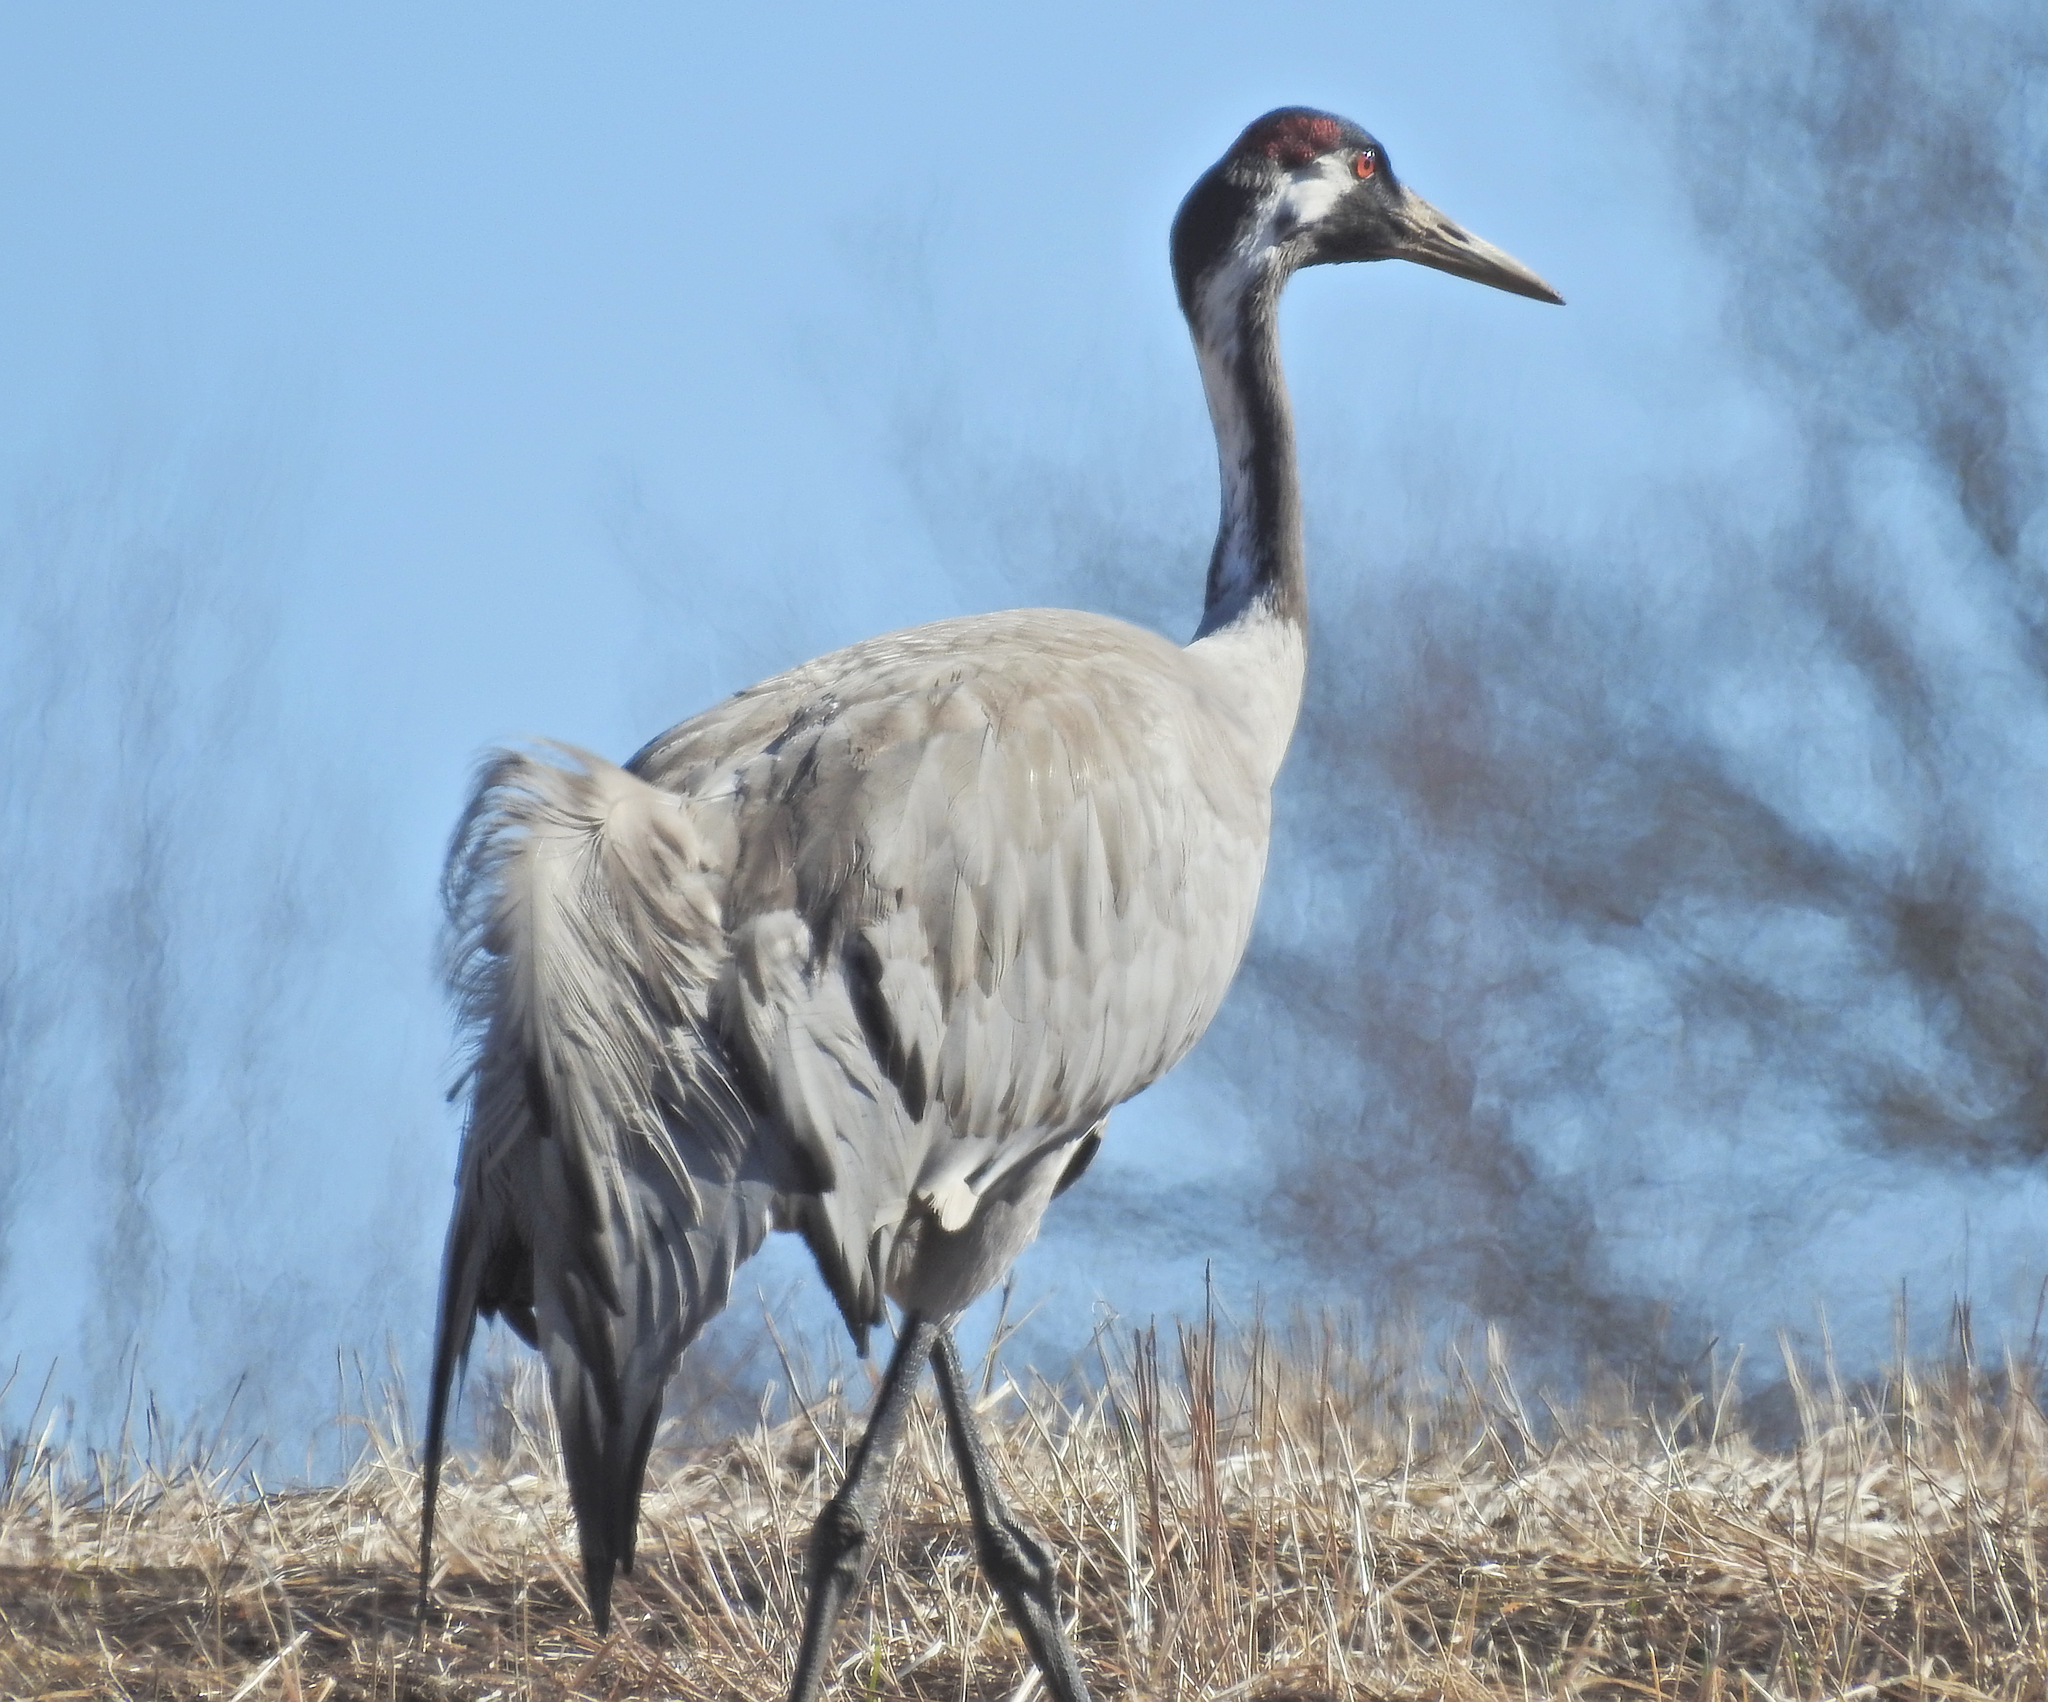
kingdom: Animalia
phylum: Chordata
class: Aves
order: Gruiformes
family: Gruidae
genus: Grus
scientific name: Grus grus
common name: Common crane
